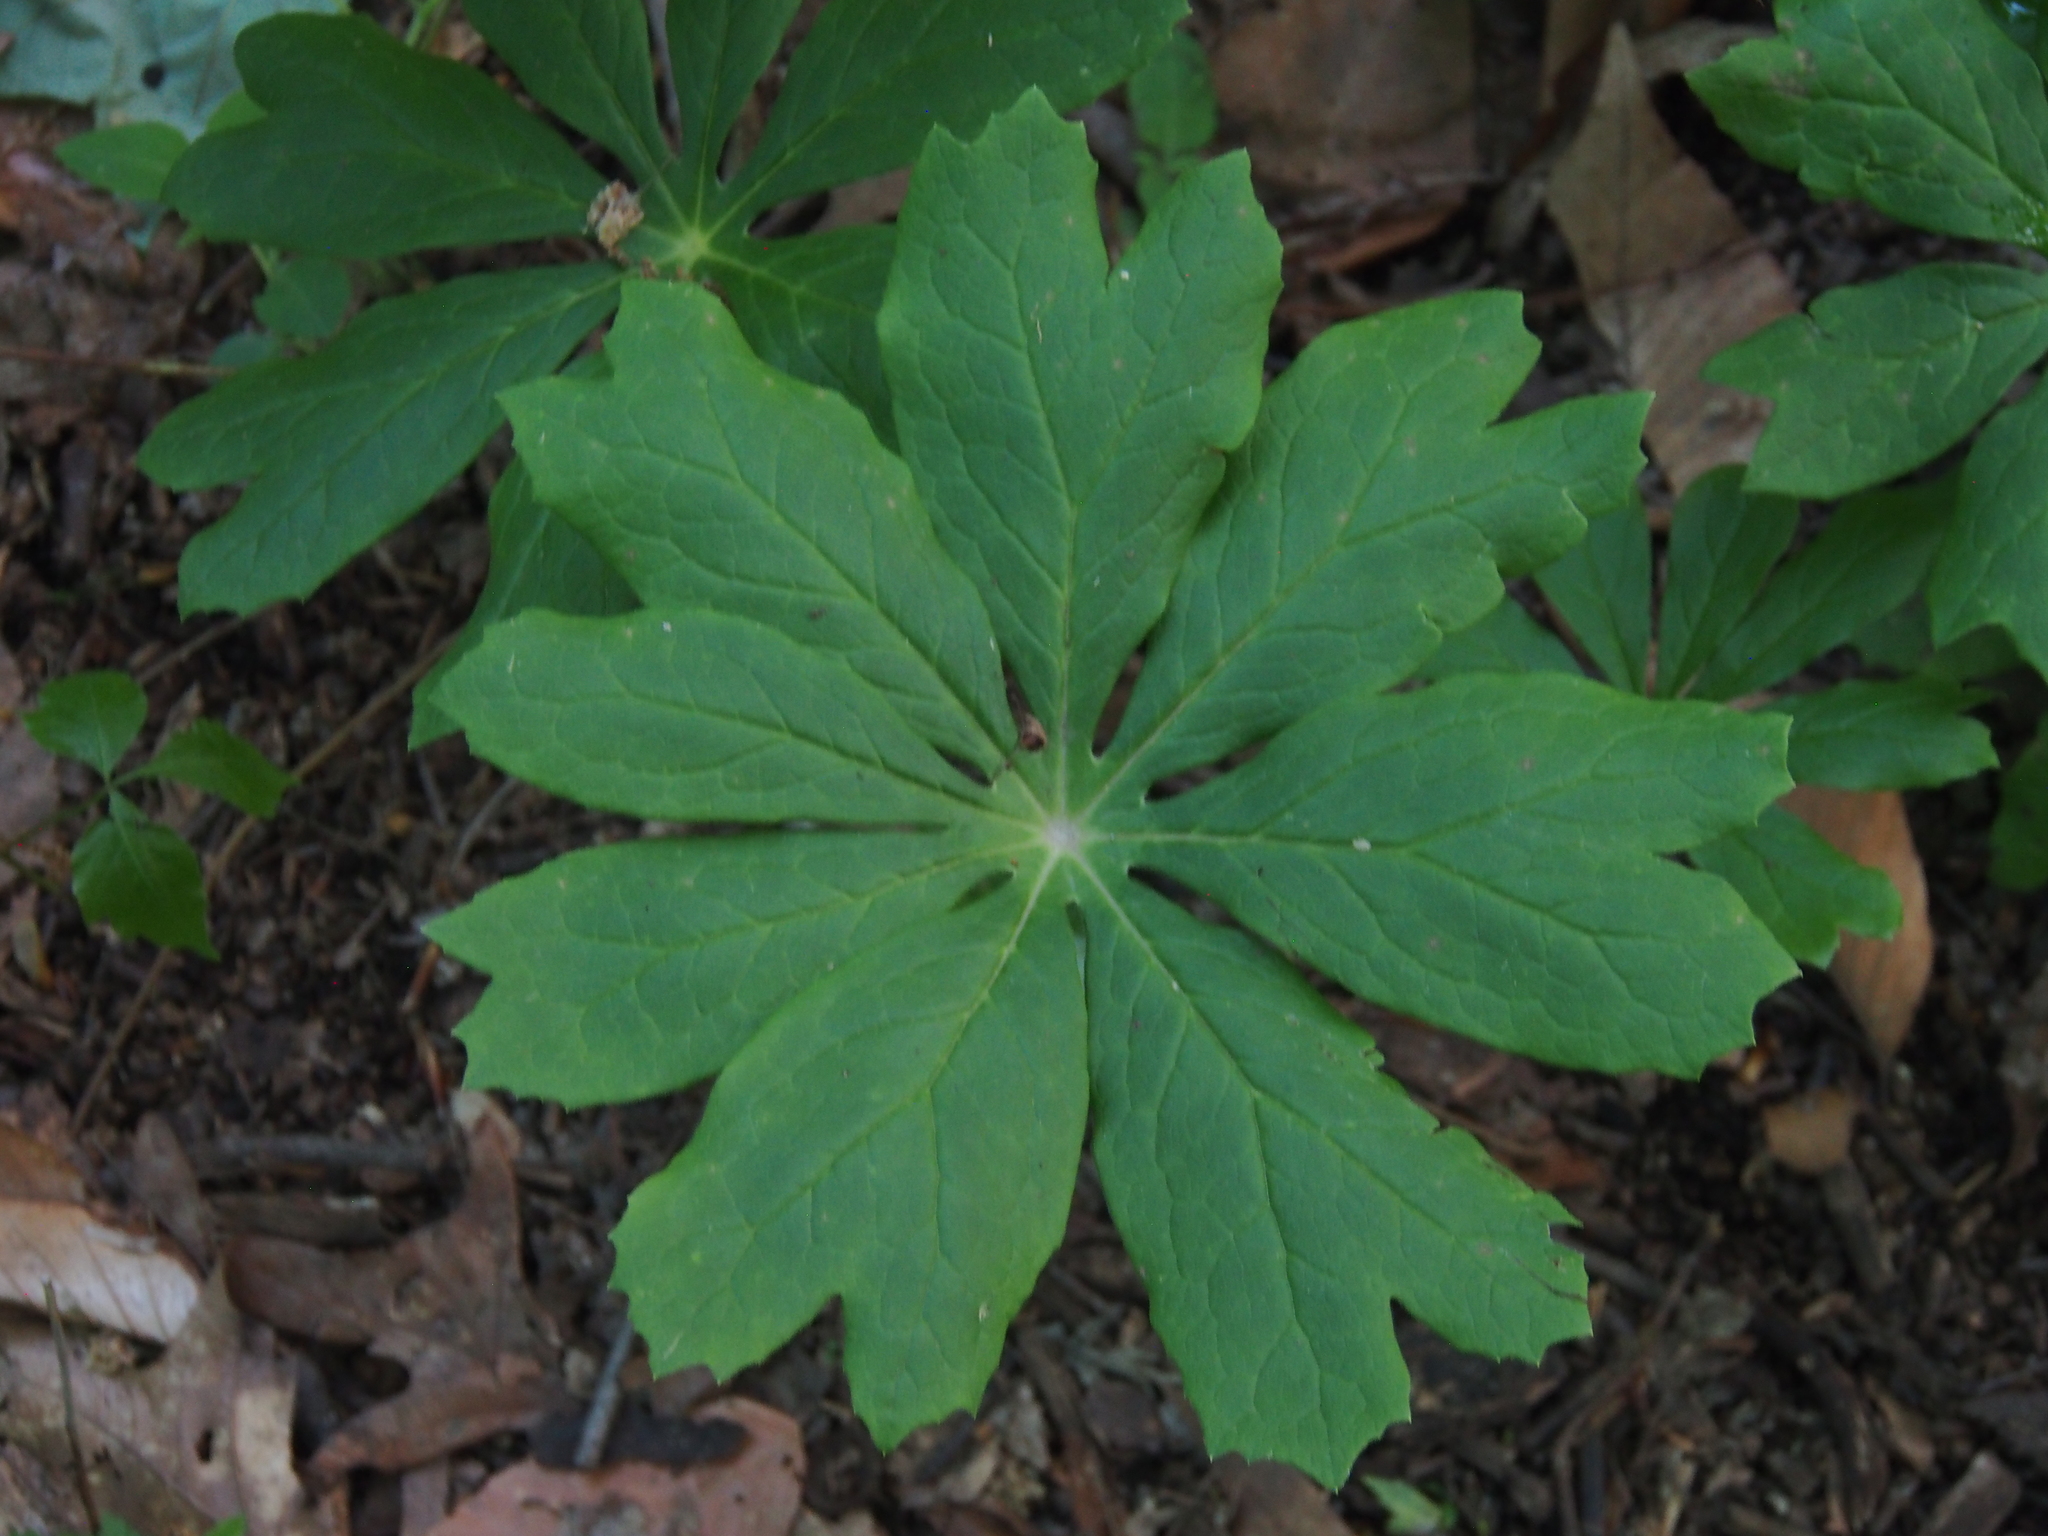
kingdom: Plantae
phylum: Tracheophyta
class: Magnoliopsida
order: Ranunculales
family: Berberidaceae
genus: Podophyllum
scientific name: Podophyllum peltatum
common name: Wild mandrake
